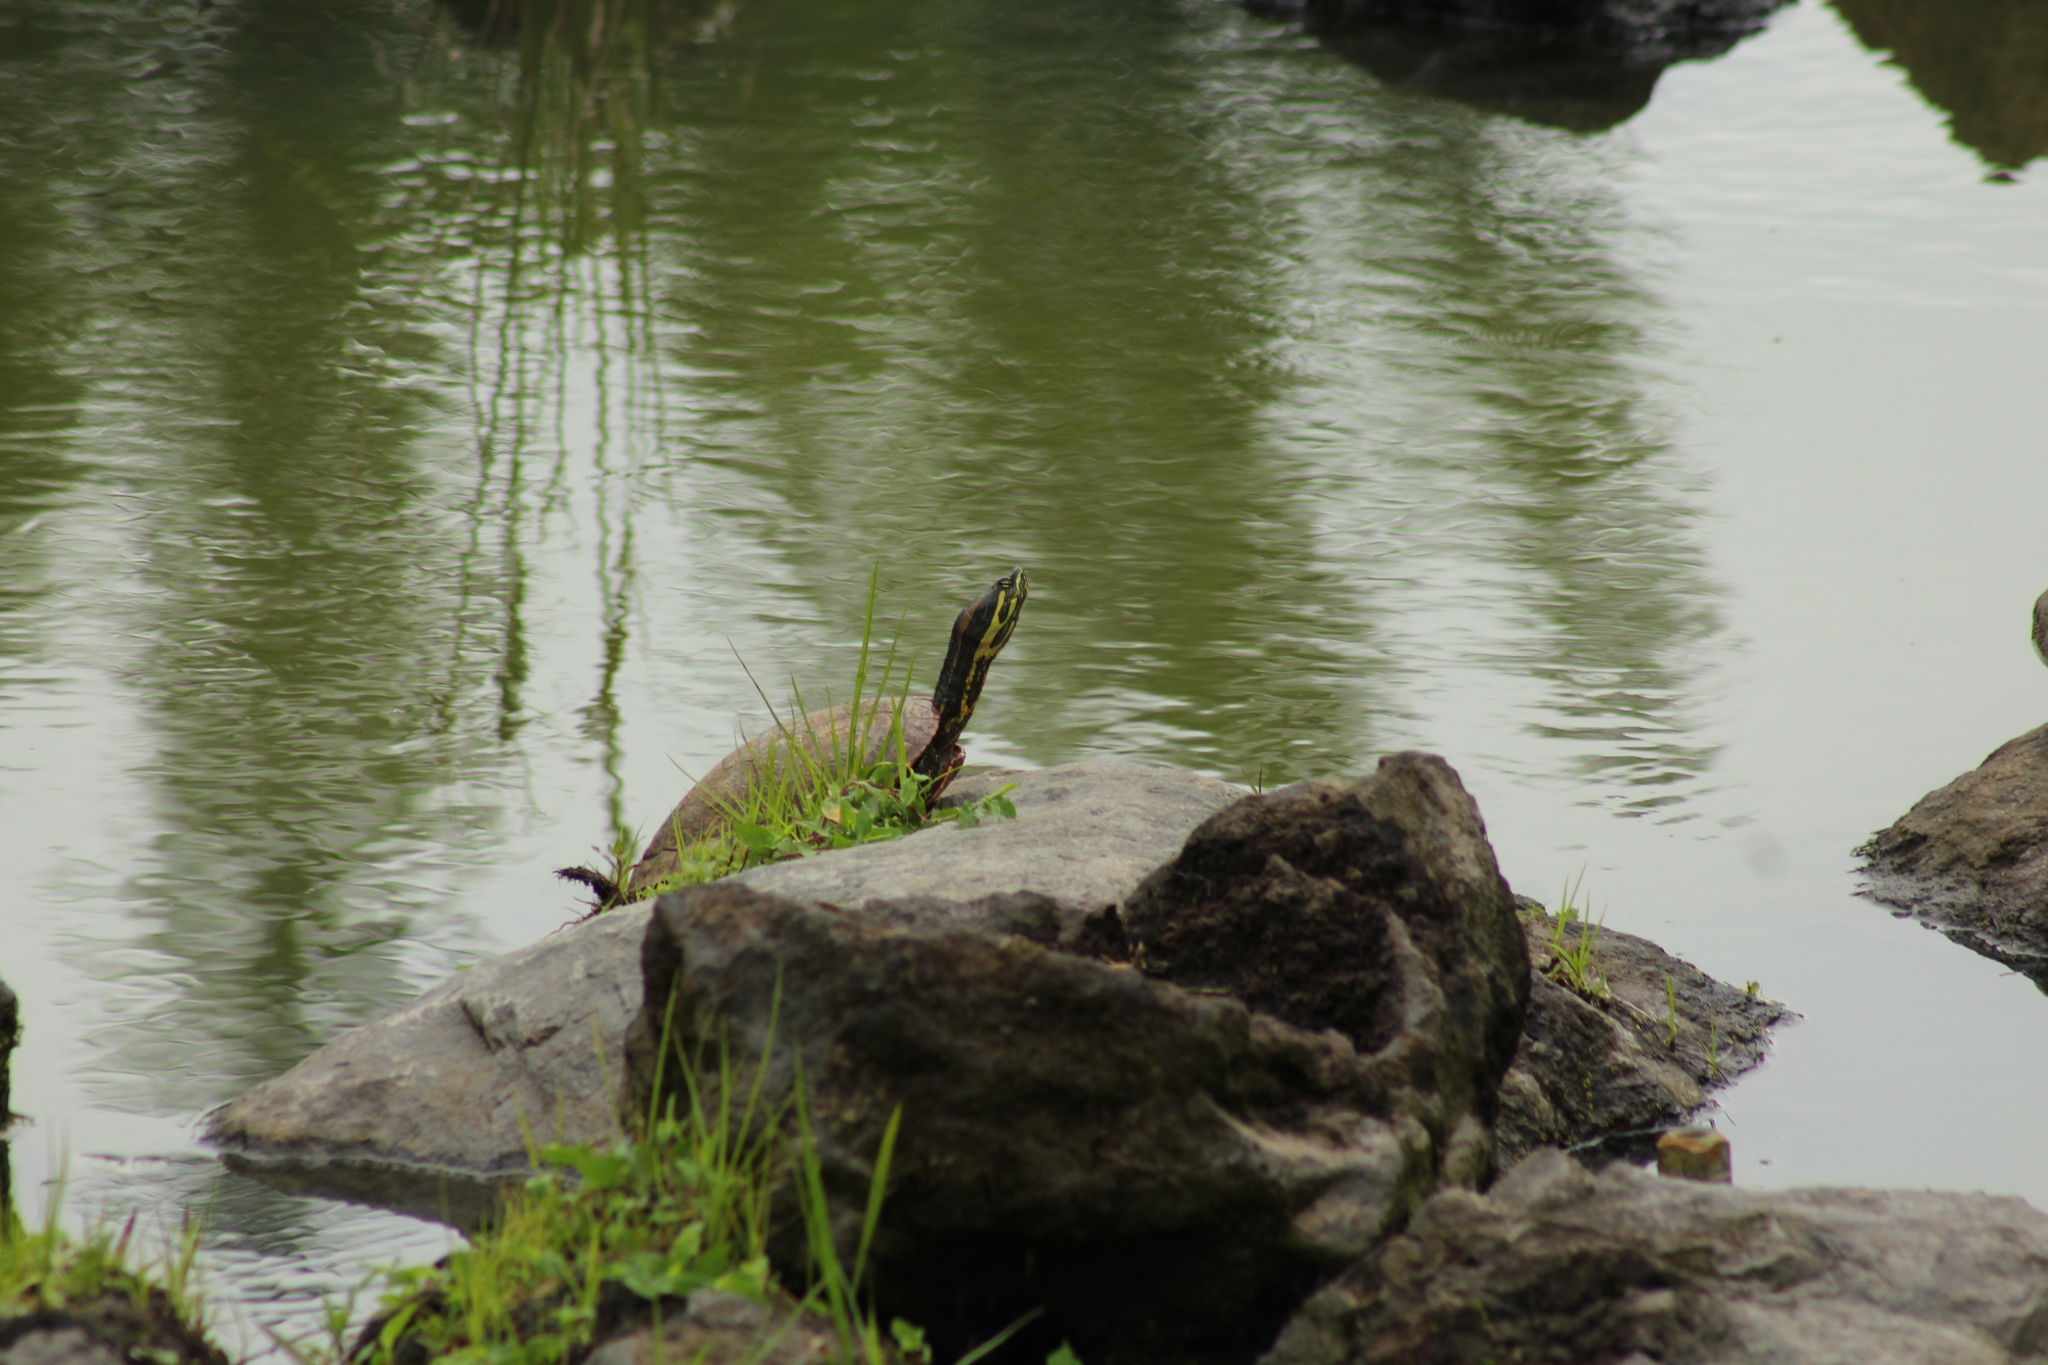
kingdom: Animalia
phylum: Chordata
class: Testudines
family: Emydidae
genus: Trachemys
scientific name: Trachemys venusta
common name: Mesoamerican slider
